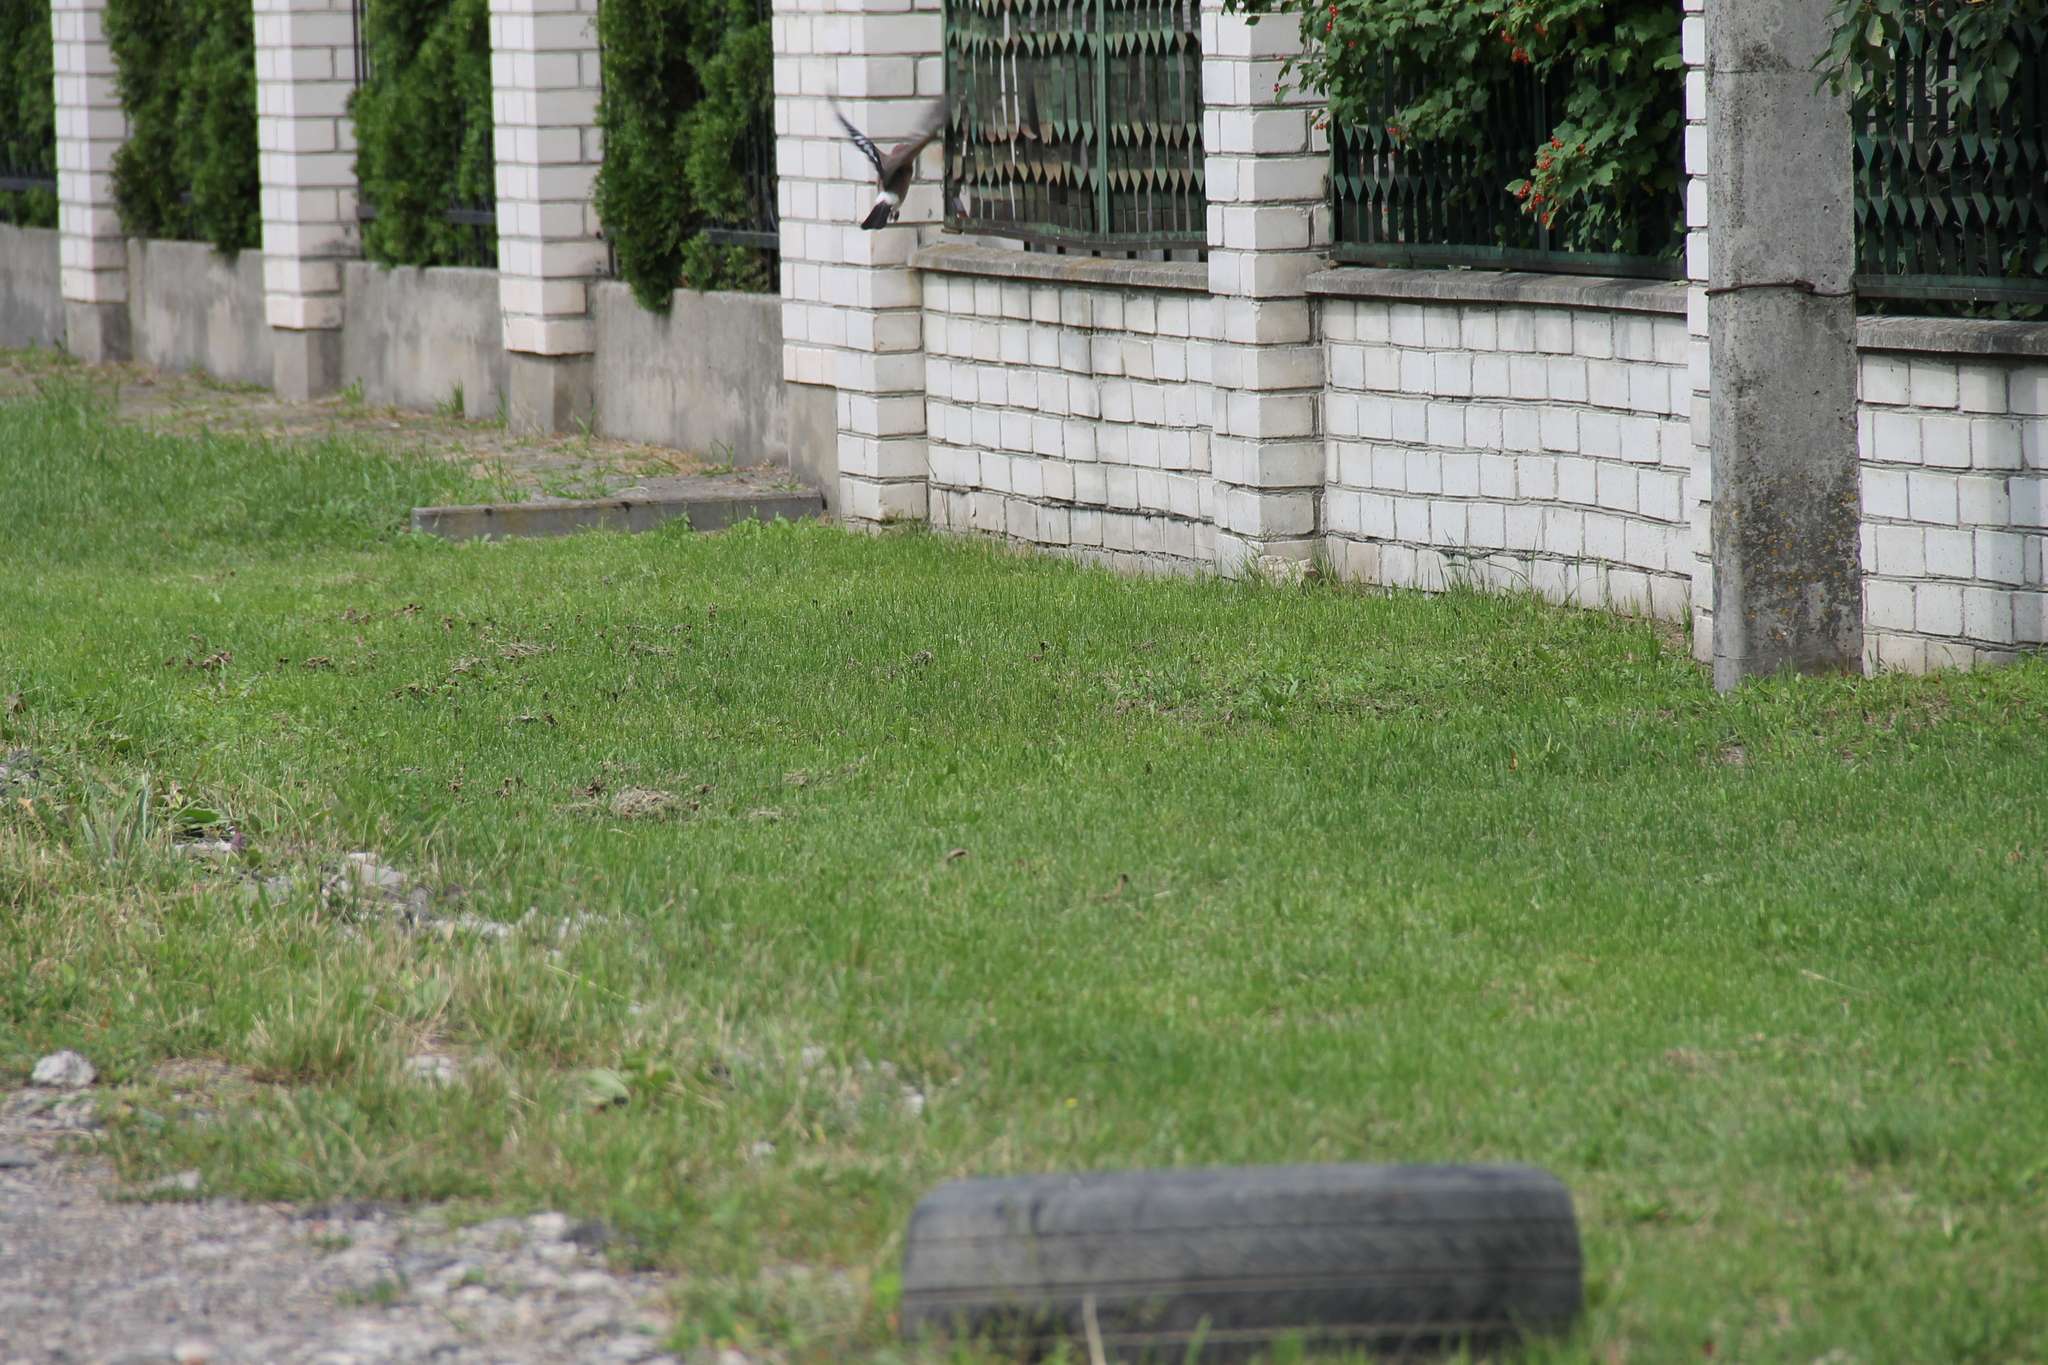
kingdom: Animalia
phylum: Chordata
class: Aves
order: Passeriformes
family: Corvidae
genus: Garrulus
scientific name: Garrulus glandarius
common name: Eurasian jay
